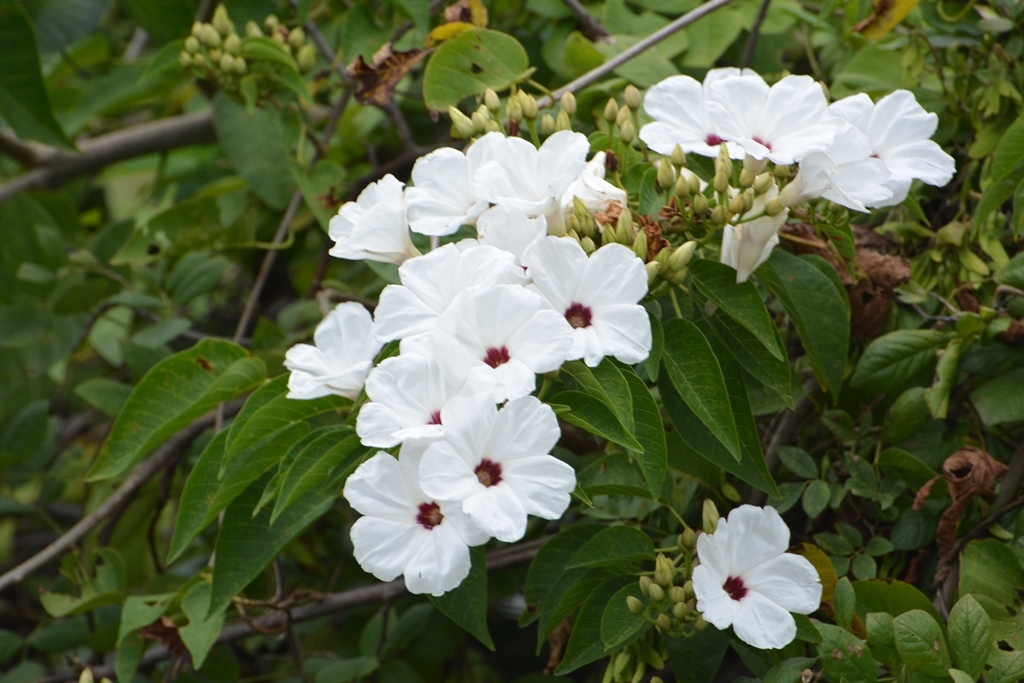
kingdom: Plantae
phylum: Tracheophyta
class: Magnoliopsida
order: Solanales
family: Convolvulaceae
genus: Ipomoea
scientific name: Ipomoea pauciflora
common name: Tree morningglory
